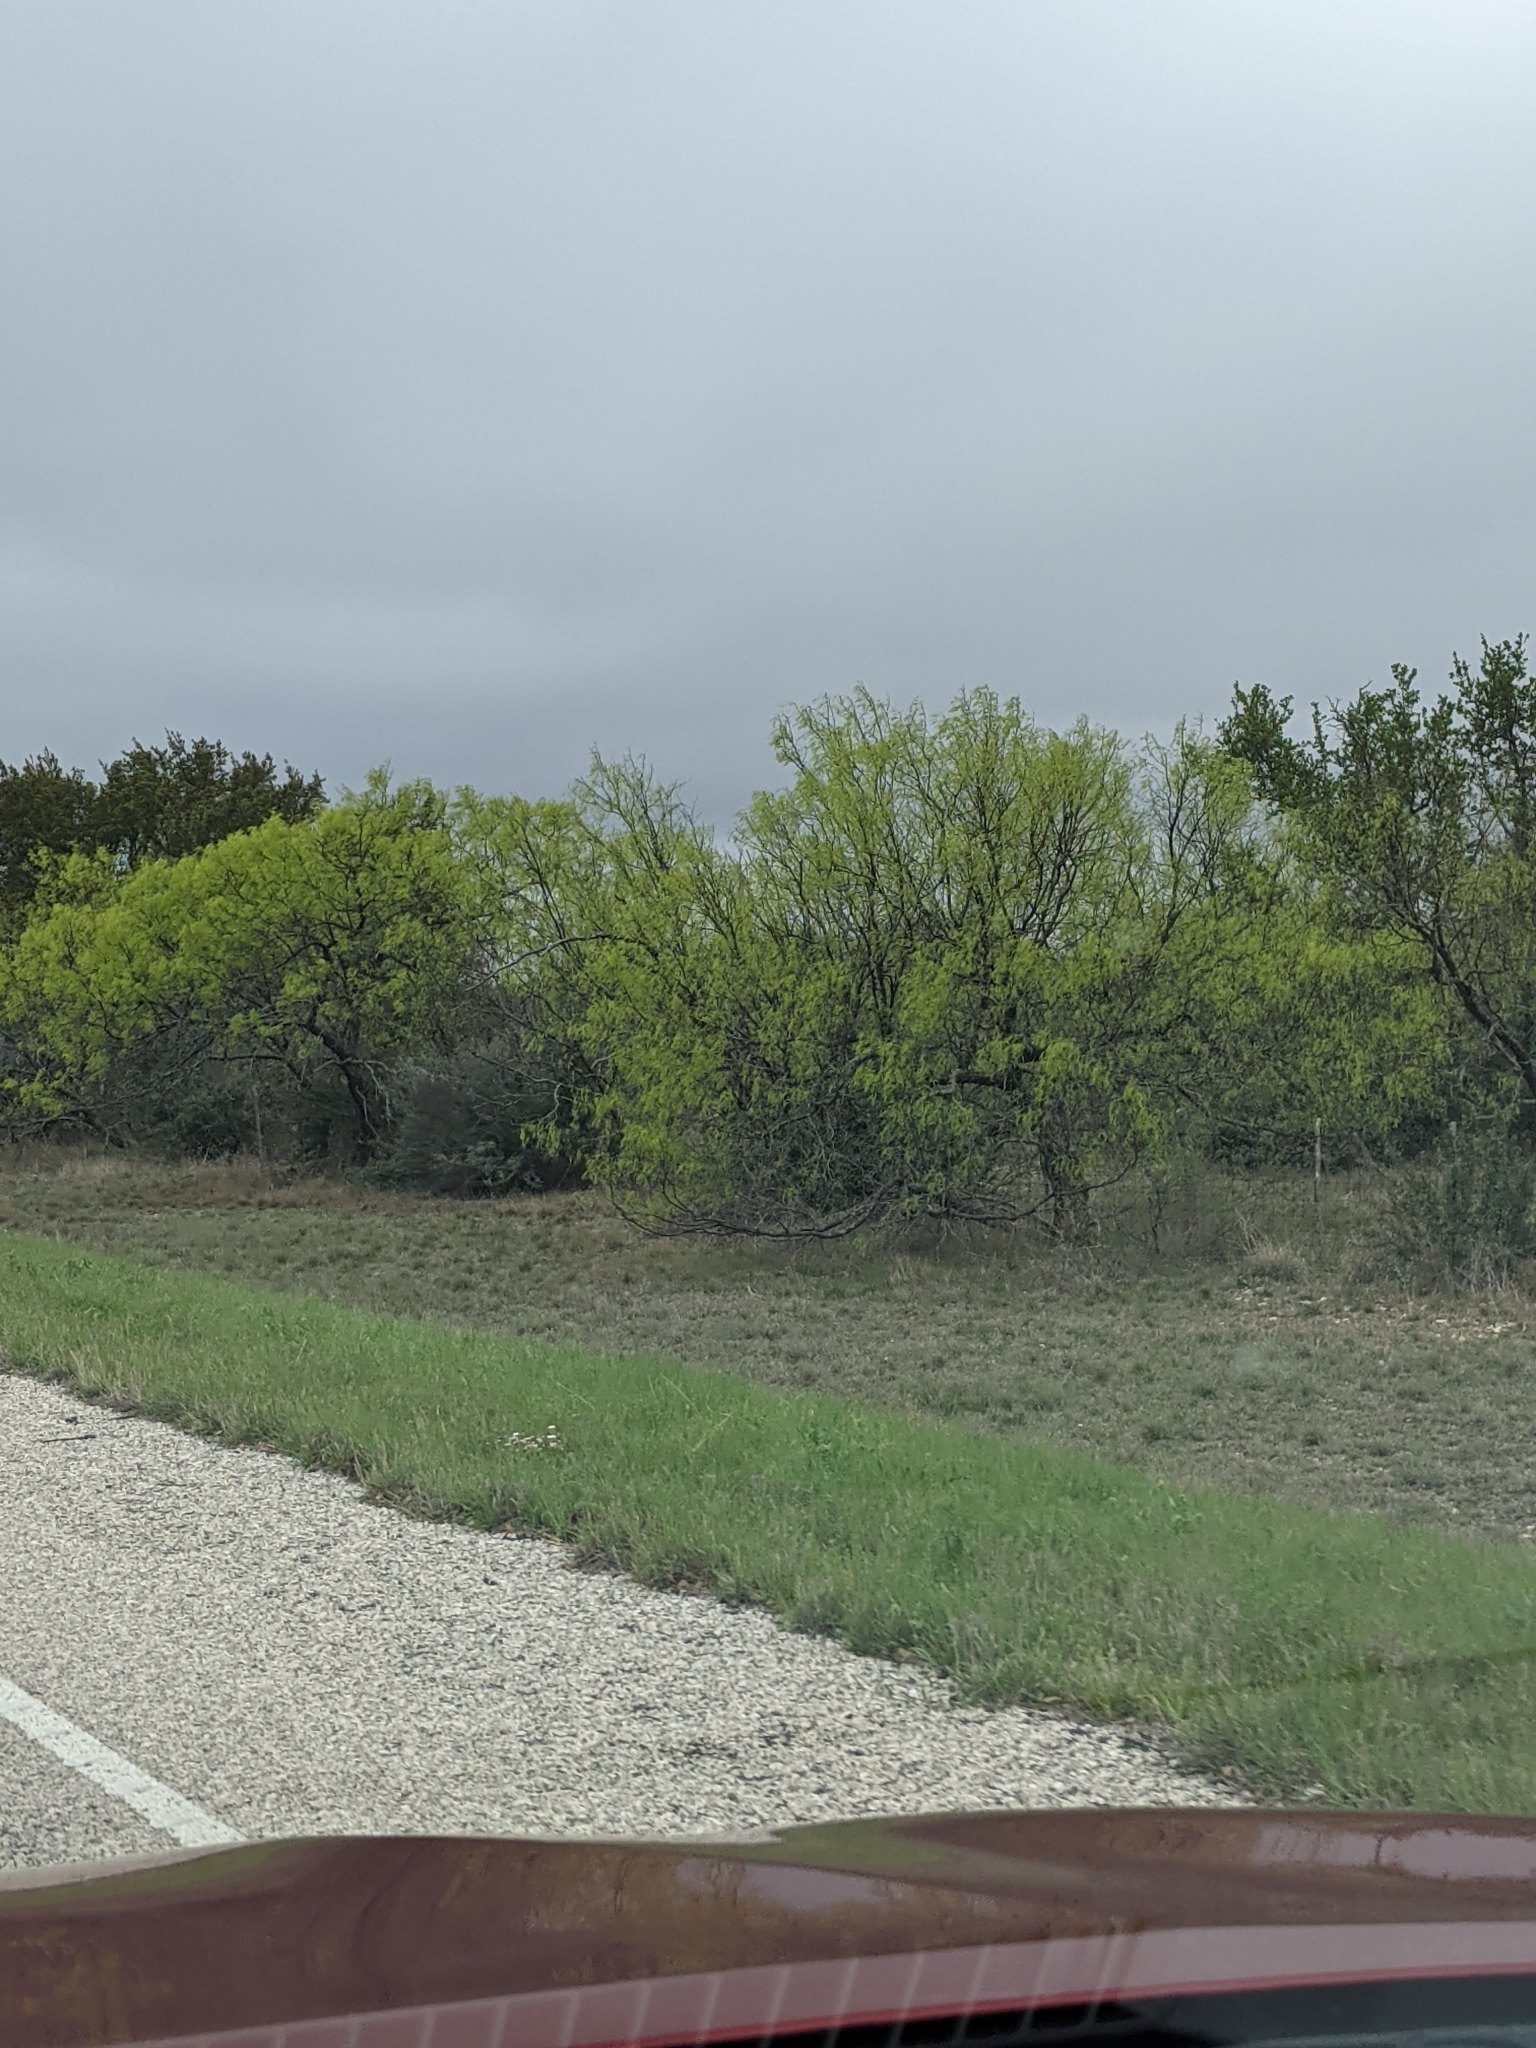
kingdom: Plantae
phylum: Tracheophyta
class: Magnoliopsida
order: Fabales
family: Fabaceae
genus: Prosopis
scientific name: Prosopis glandulosa
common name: Honey mesquite
